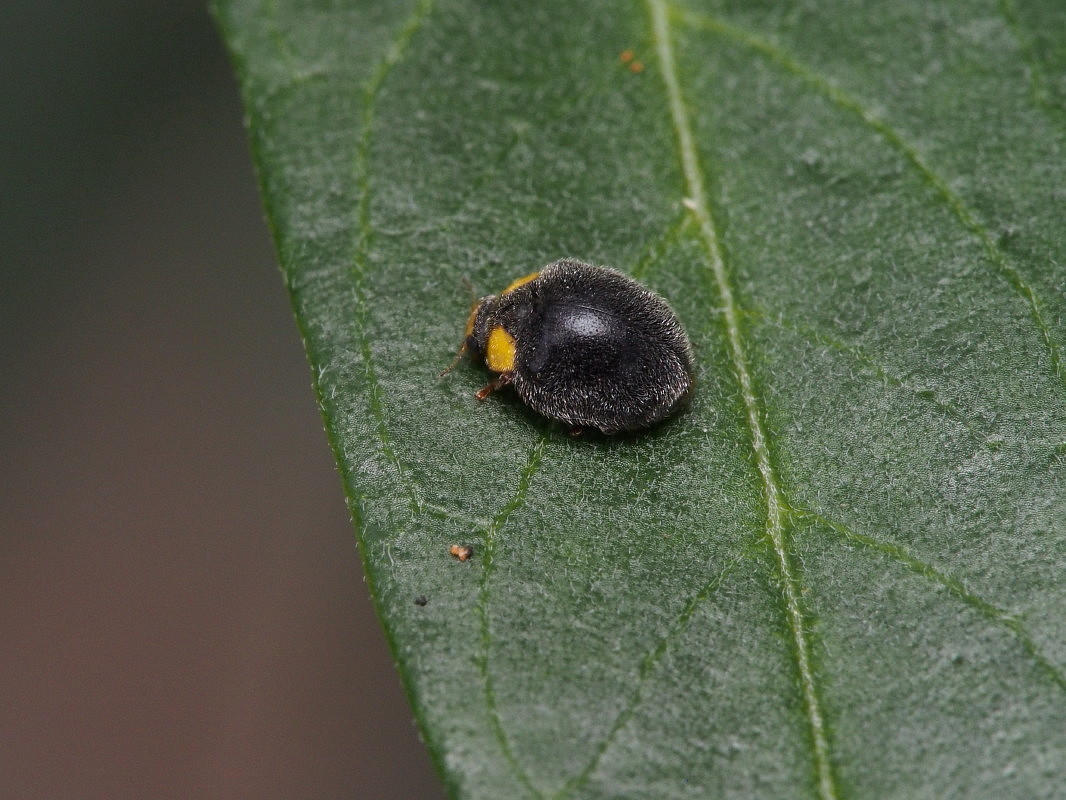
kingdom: Animalia
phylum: Arthropoda
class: Insecta
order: Coleoptera
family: Coccinellidae
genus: Scymnodes
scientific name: Scymnodes lividigaster
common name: Yellowshouldered lady beetle
